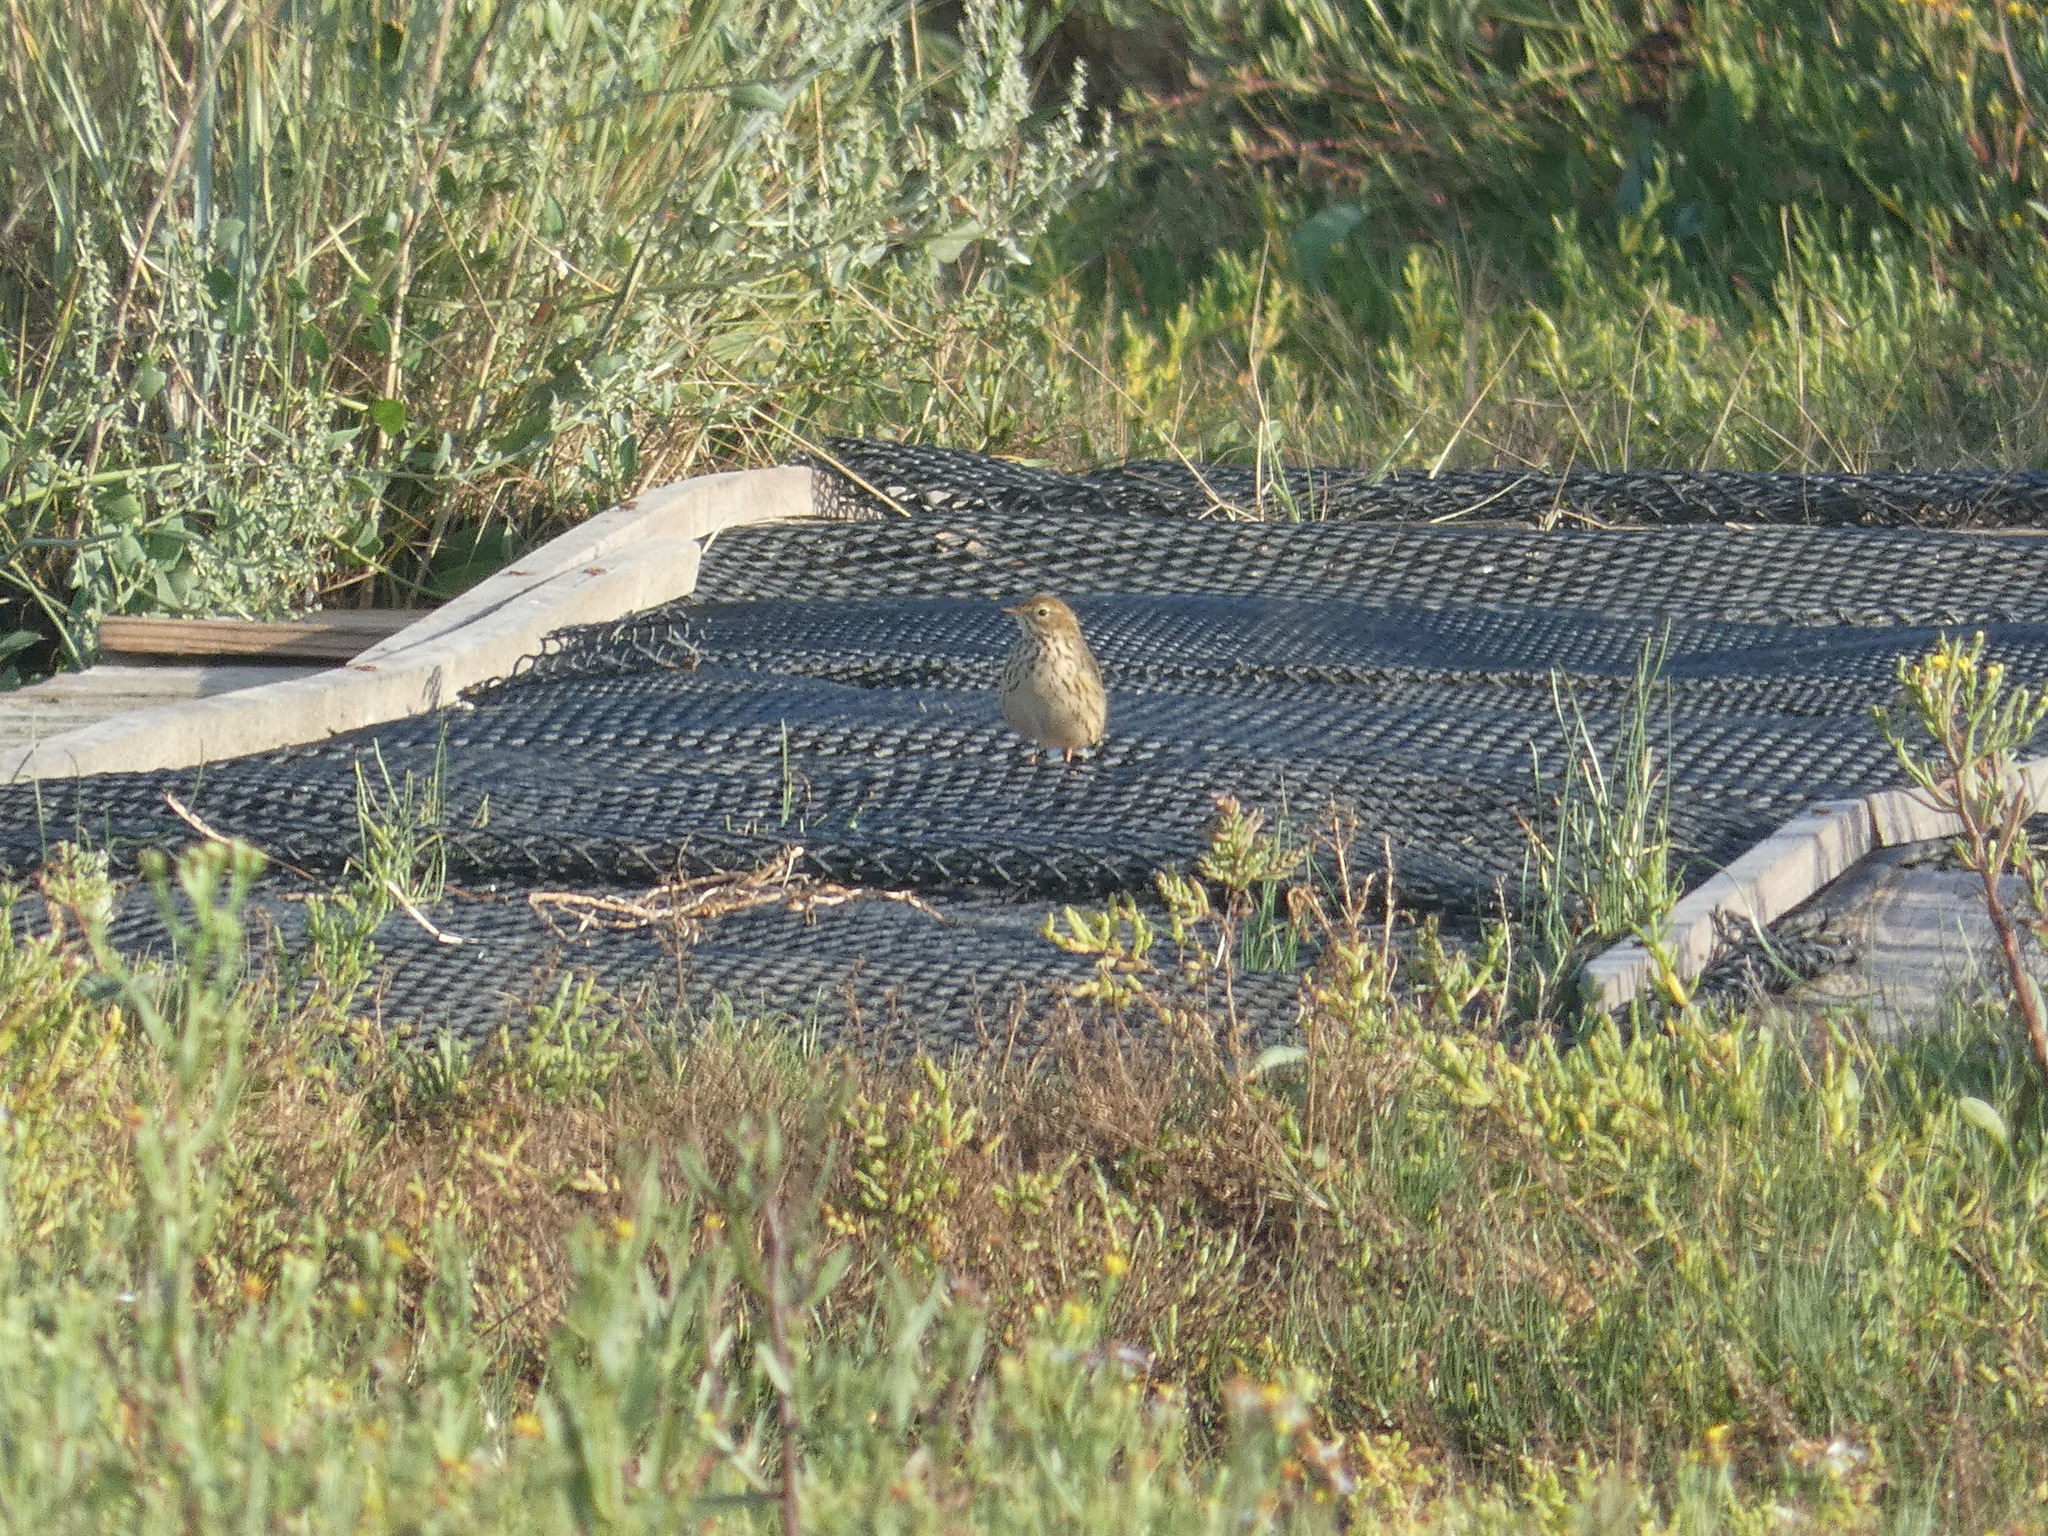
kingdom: Animalia
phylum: Chordata
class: Aves
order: Passeriformes
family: Motacillidae
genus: Anthus
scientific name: Anthus pratensis
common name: Meadow pipit
